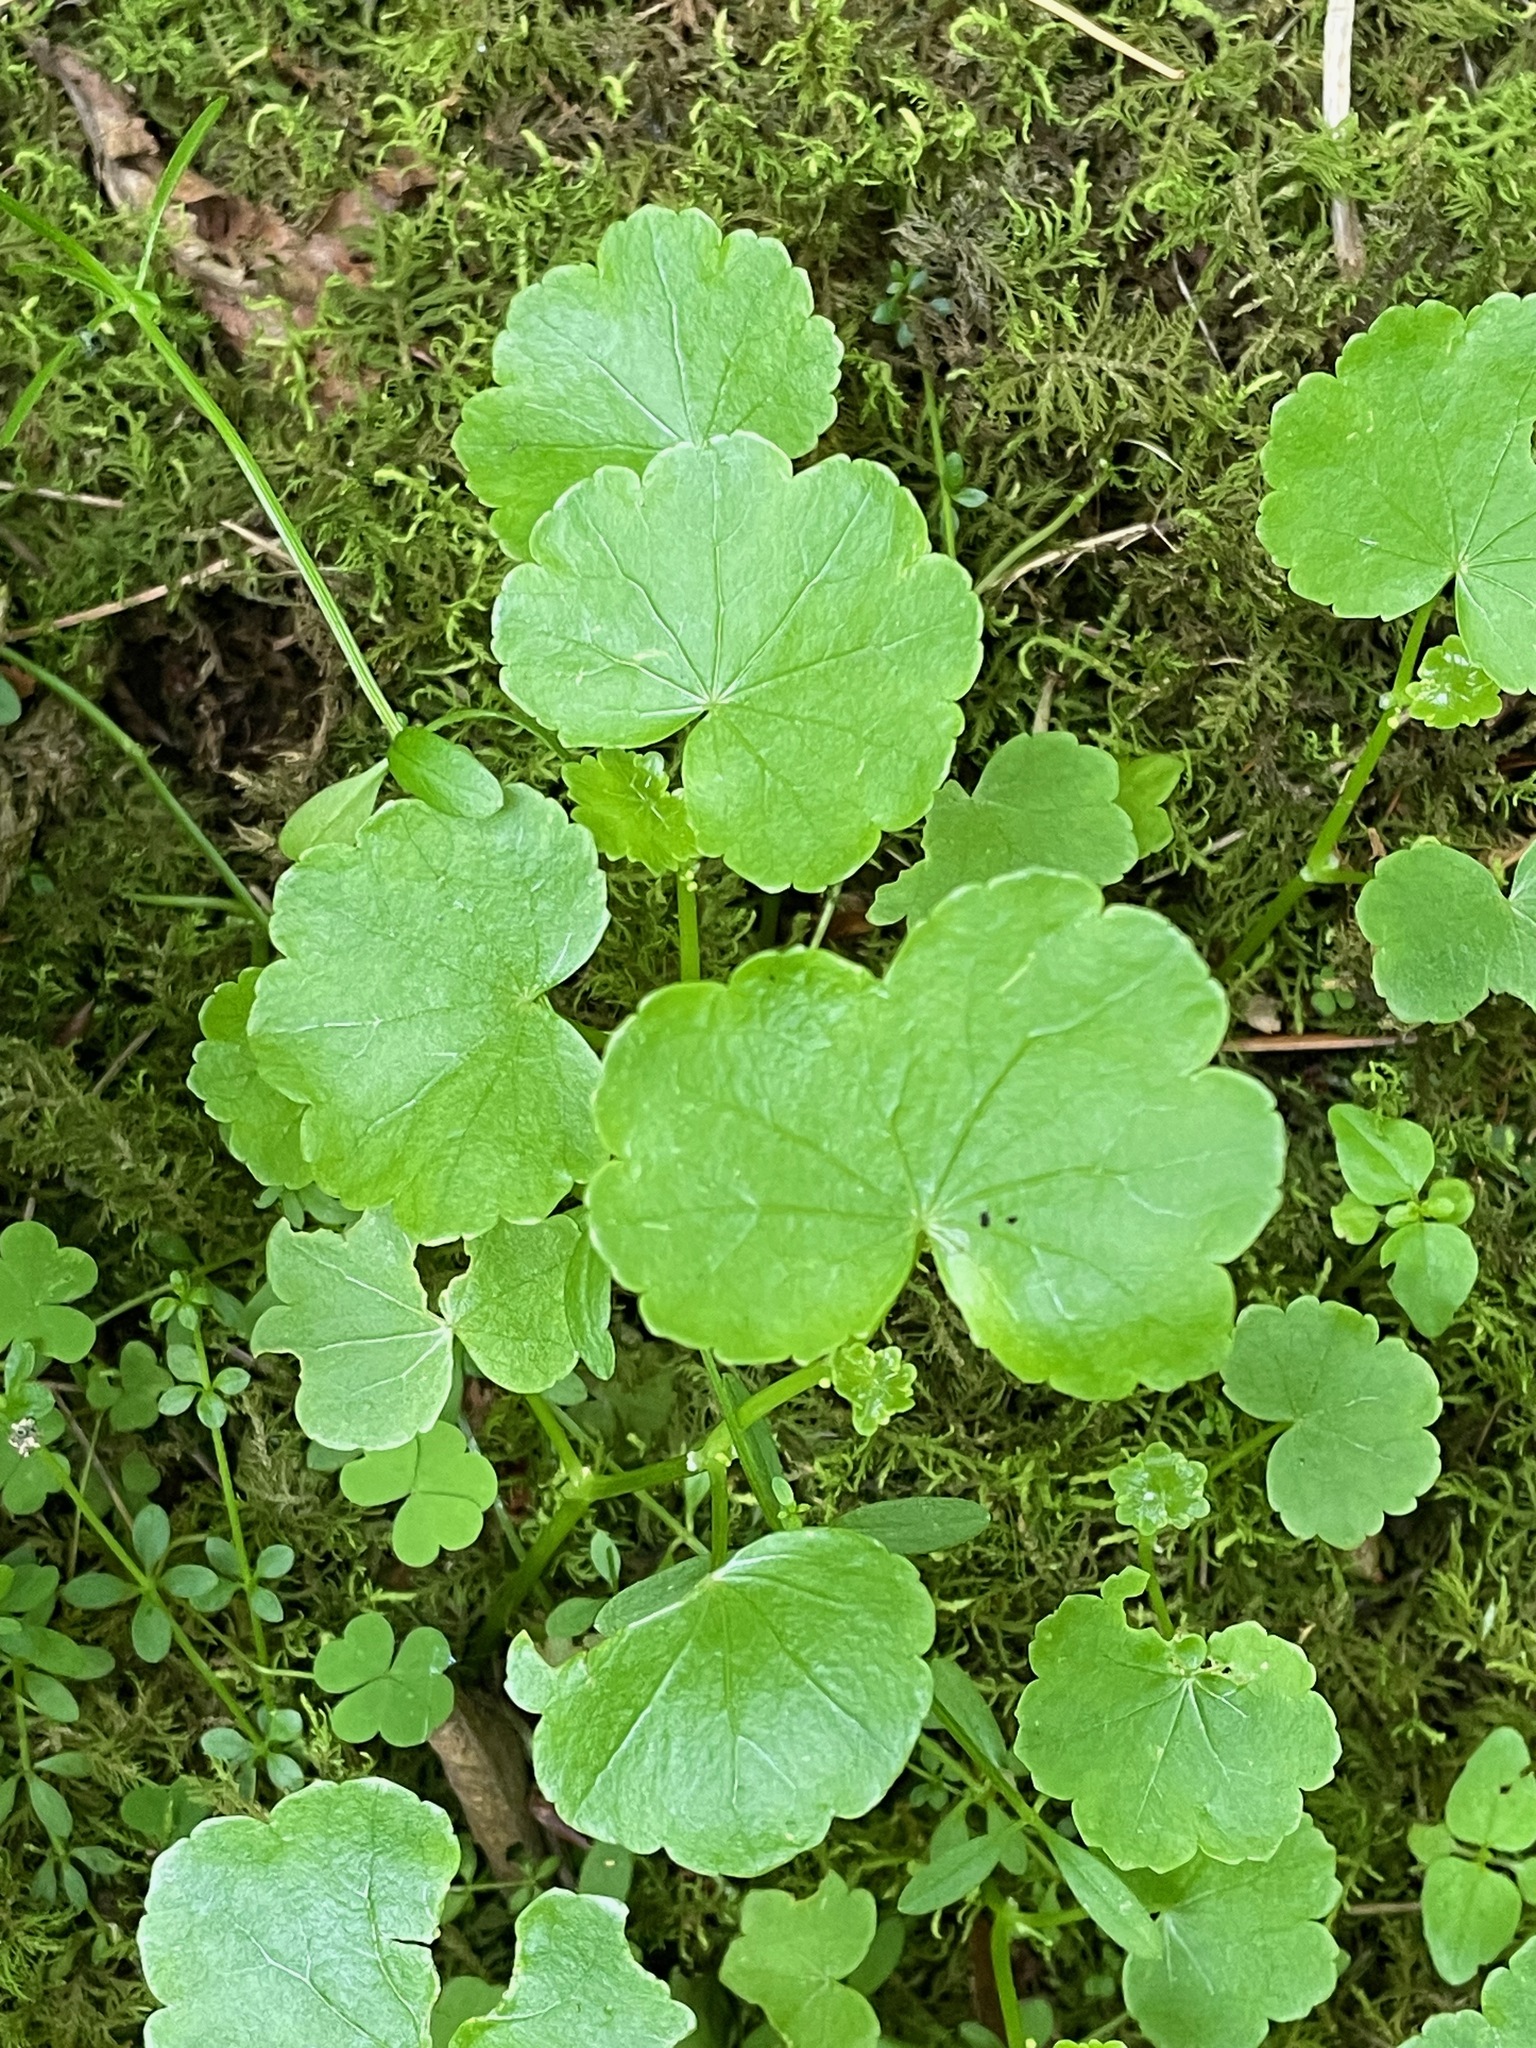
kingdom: Plantae
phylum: Tracheophyta
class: Magnoliopsida
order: Apiales
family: Araliaceae
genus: Hydrocotyle
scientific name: Hydrocotyle americana
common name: American water-pennywort
